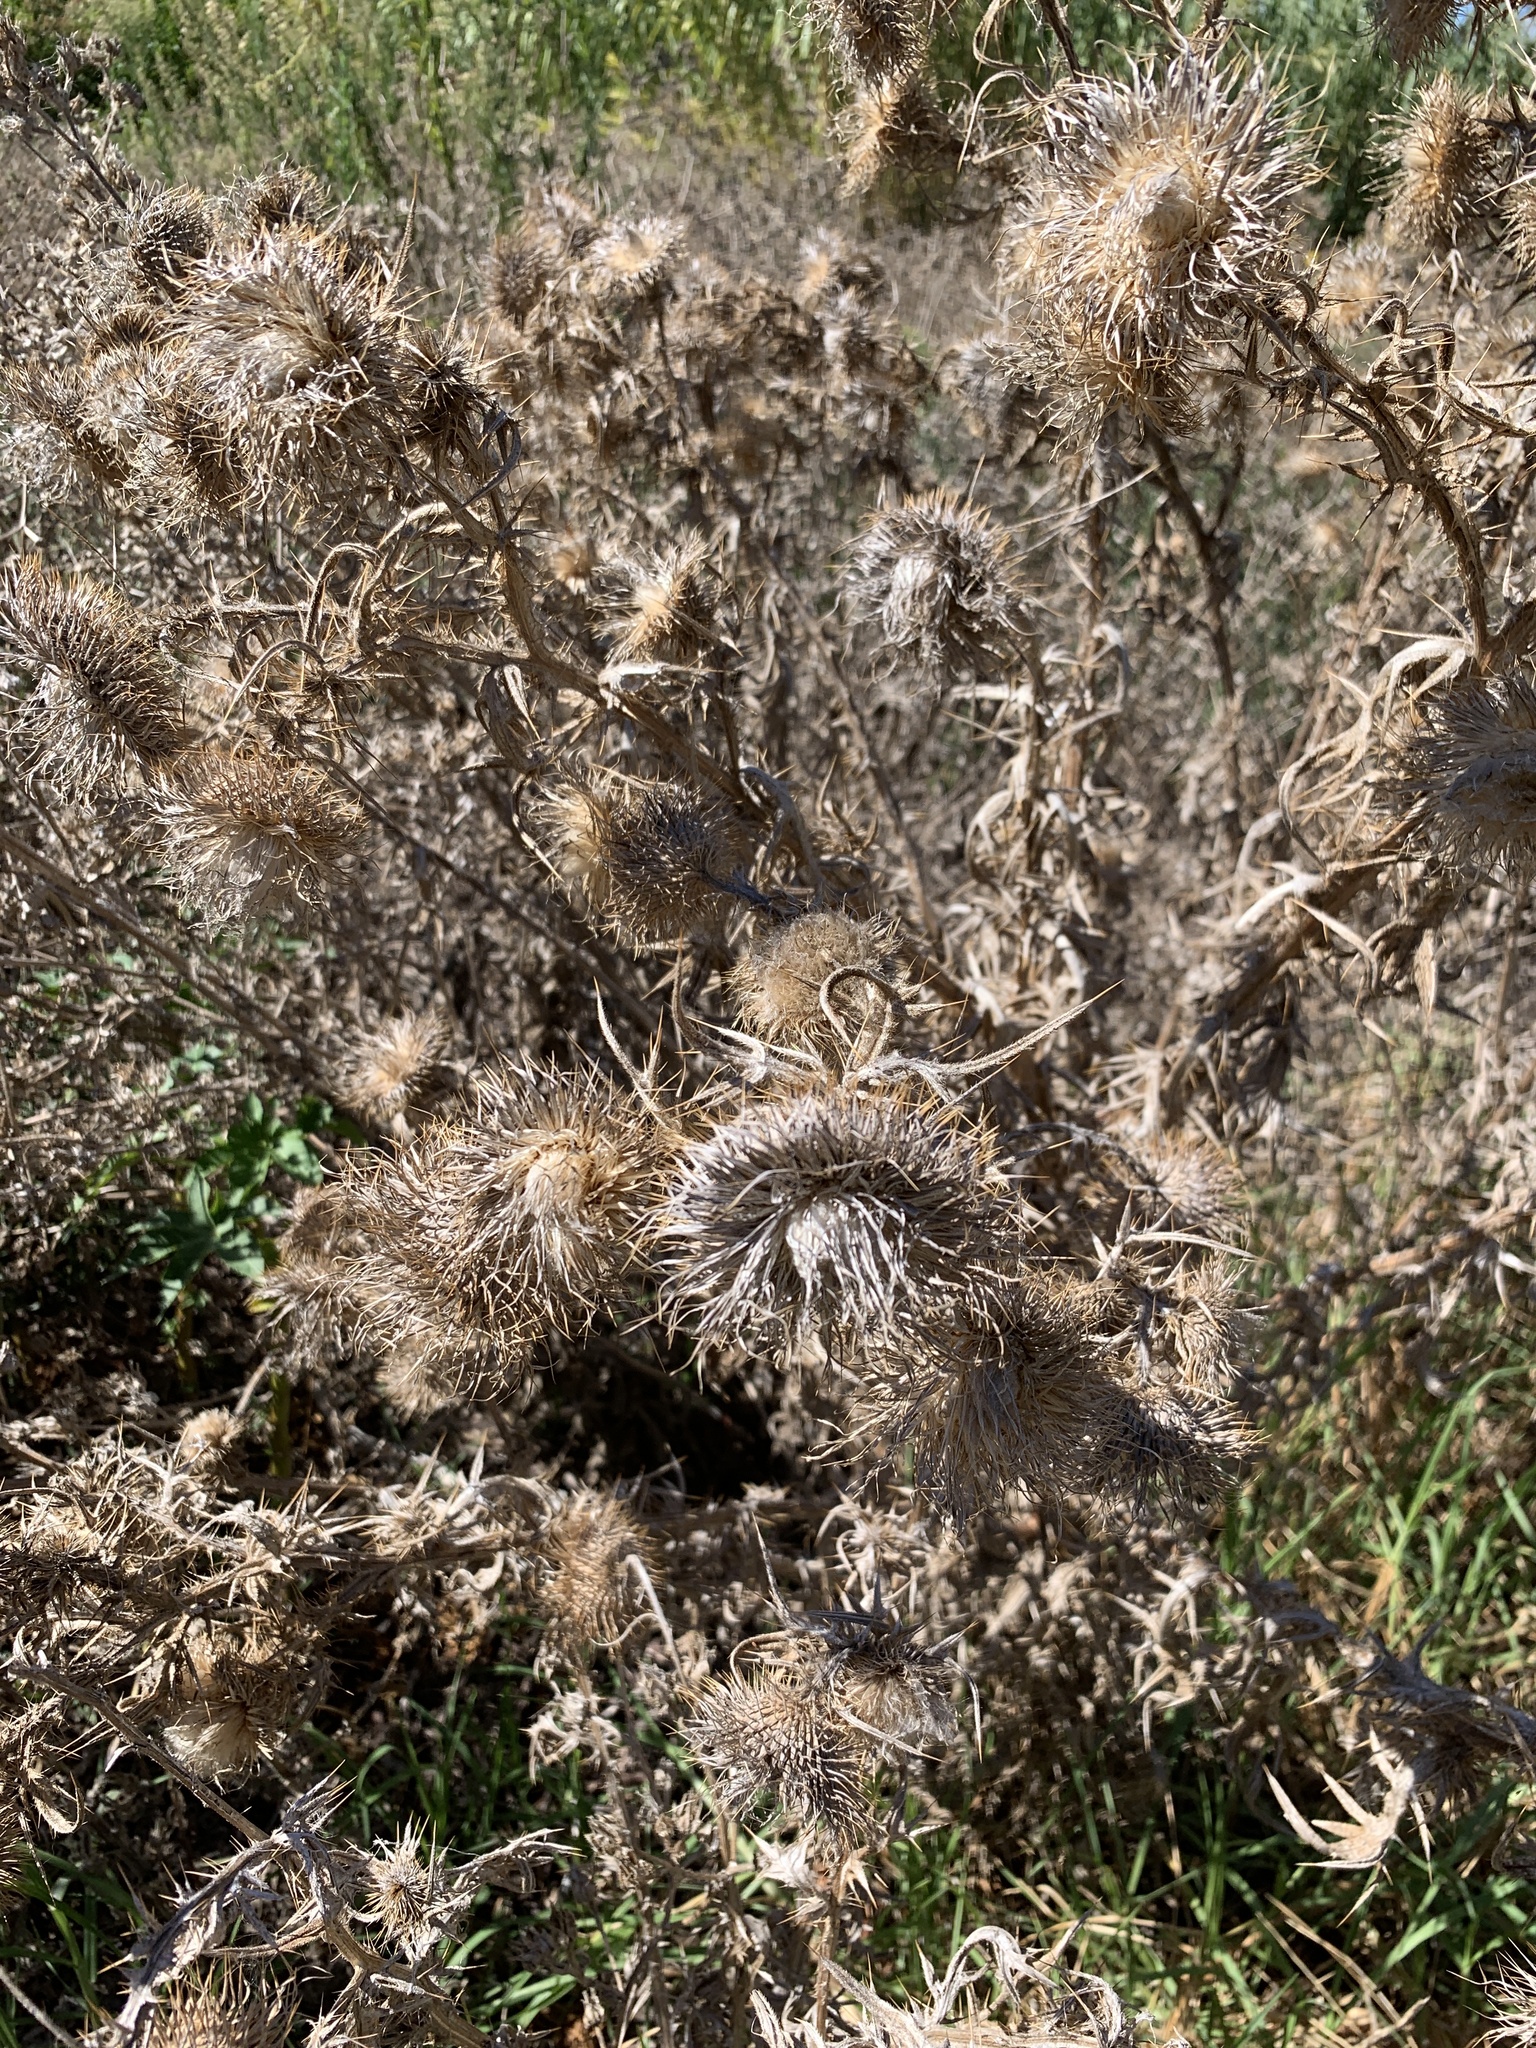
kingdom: Plantae
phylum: Tracheophyta
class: Magnoliopsida
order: Asterales
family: Asteraceae
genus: Cirsium
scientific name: Cirsium vulgare
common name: Bull thistle
